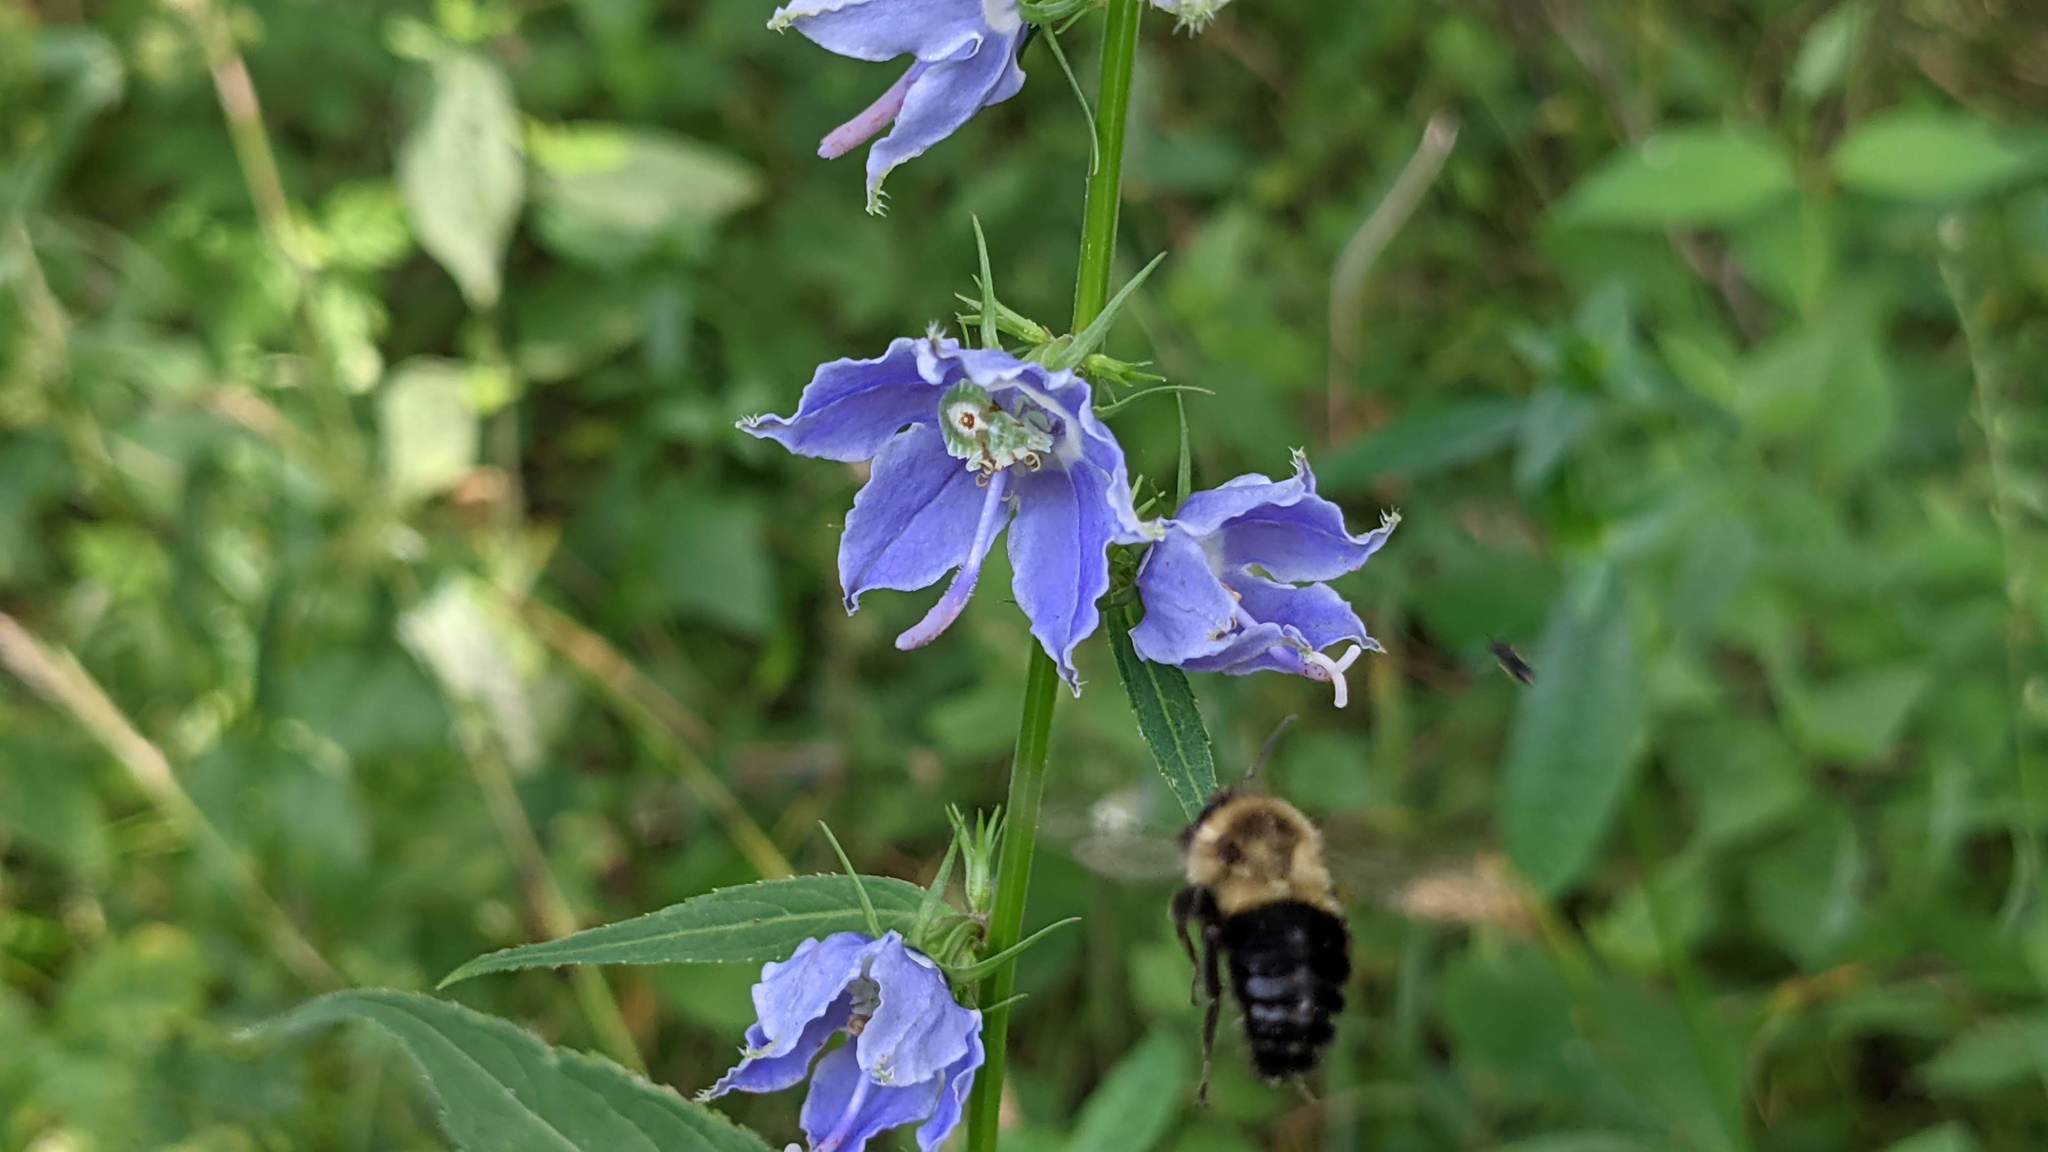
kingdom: Plantae
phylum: Tracheophyta
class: Magnoliopsida
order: Asterales
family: Campanulaceae
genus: Campanulastrum
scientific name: Campanulastrum americanum
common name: American bellflower
